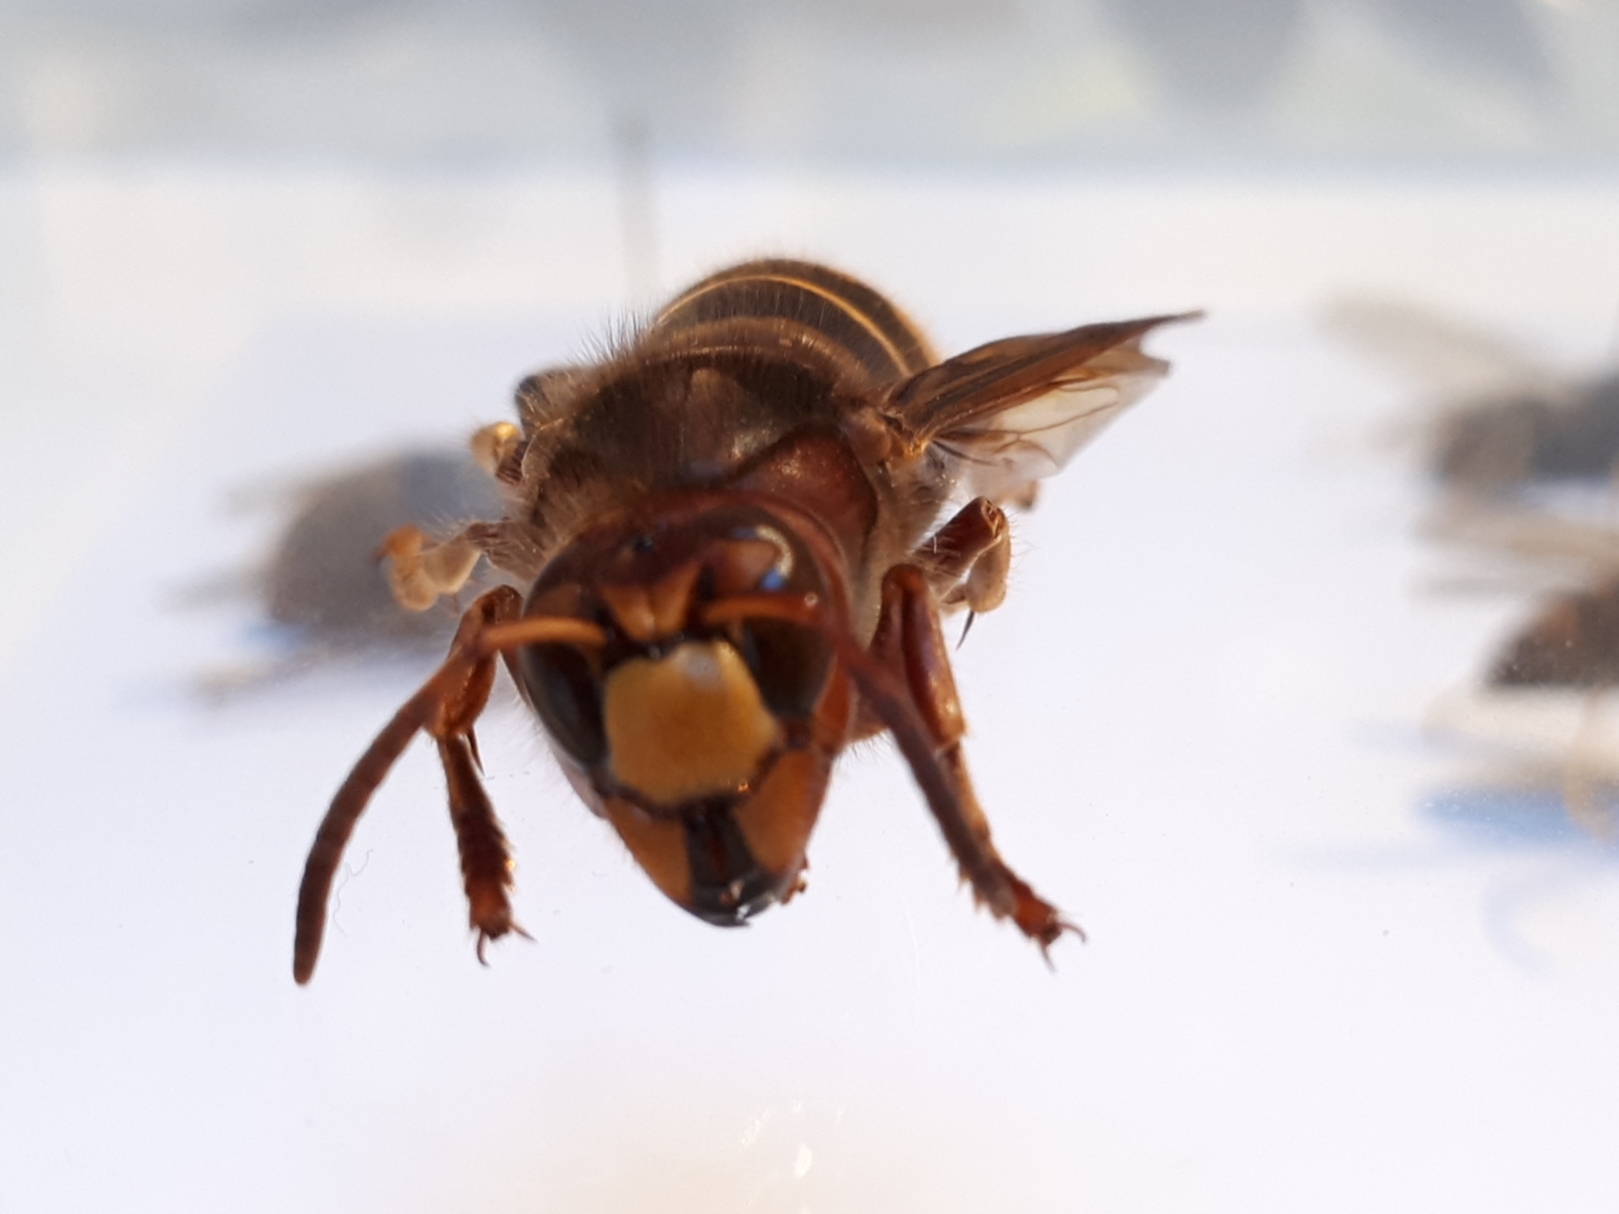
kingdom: Animalia
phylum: Arthropoda
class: Insecta
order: Hymenoptera
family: Vespidae
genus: Vespa
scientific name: Vespa crabro
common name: Hornet
